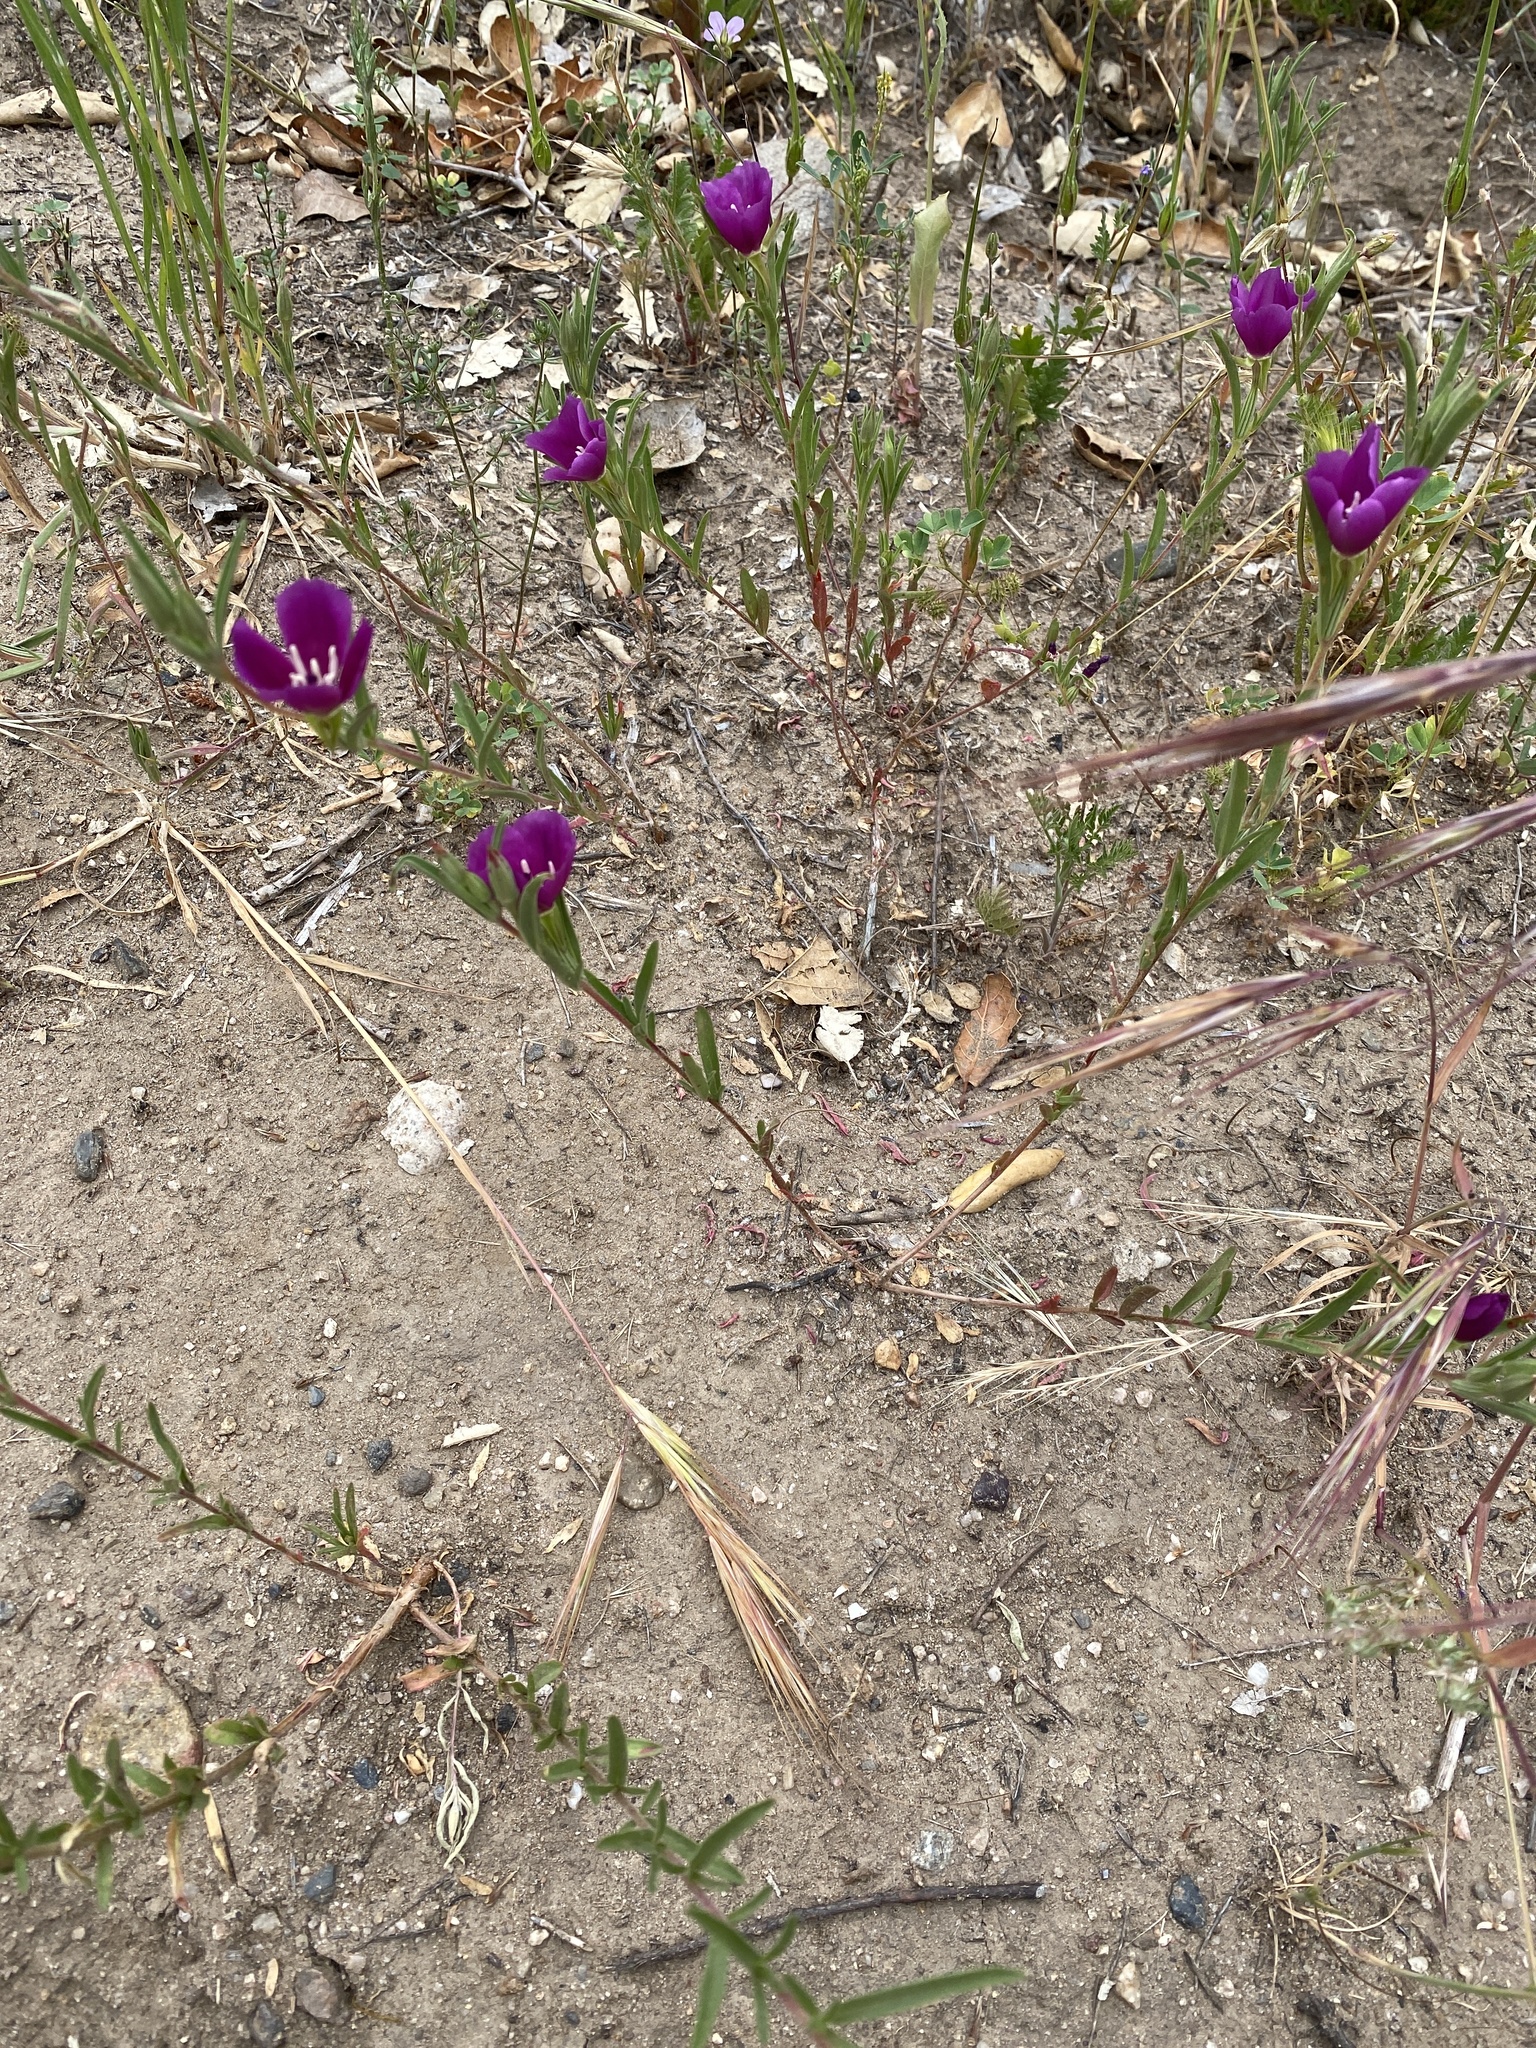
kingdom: Plantae
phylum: Tracheophyta
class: Magnoliopsida
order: Myrtales
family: Onagraceae
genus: Clarkia
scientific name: Clarkia purpurea
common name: Purple clarkia
